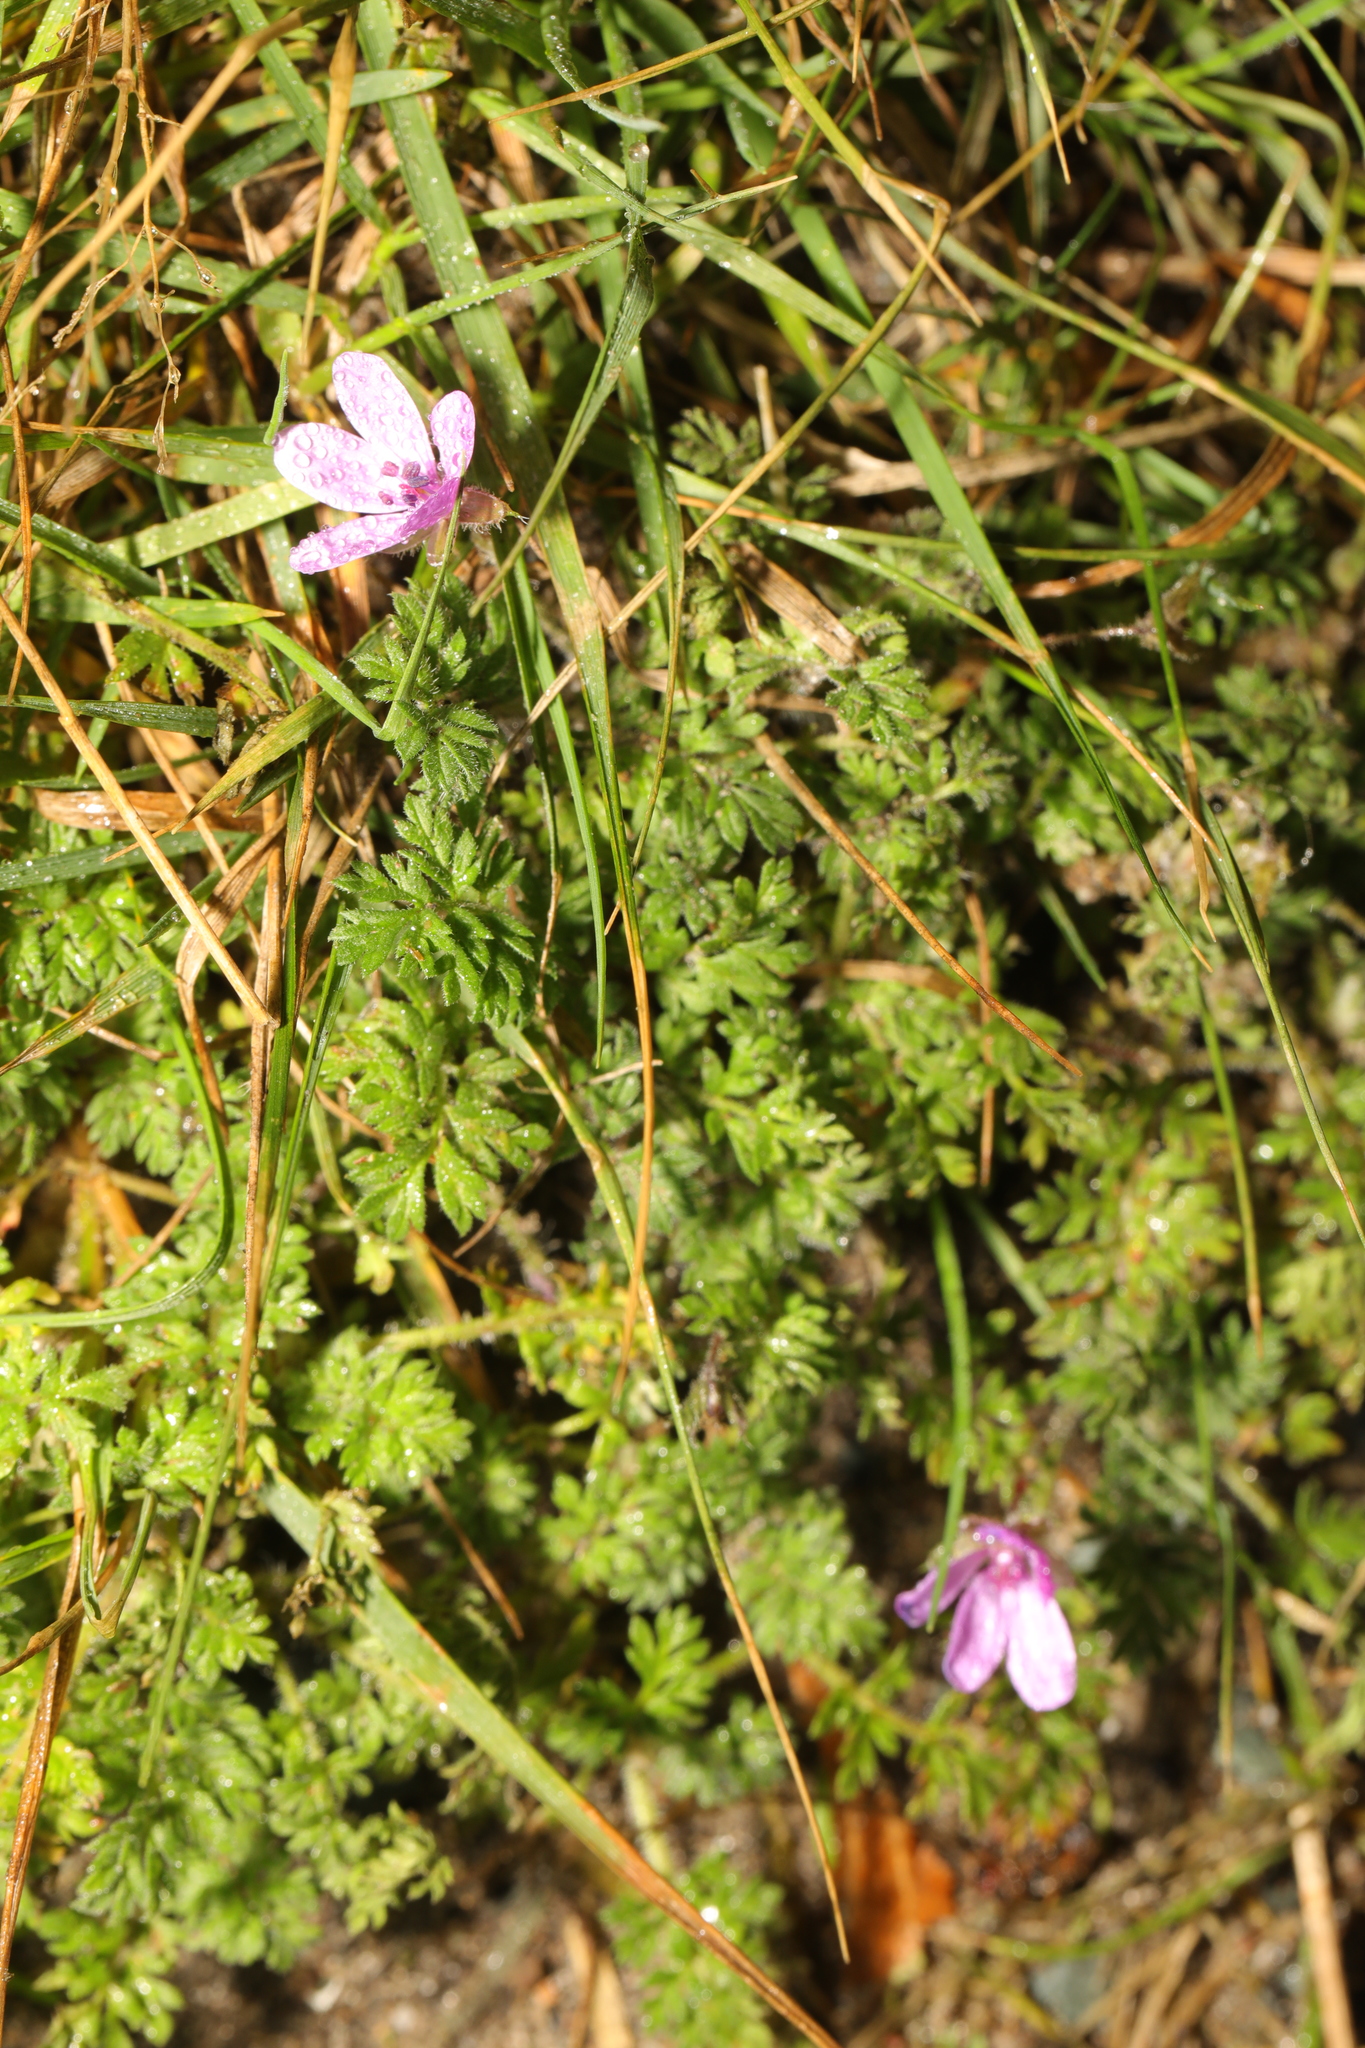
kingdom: Plantae
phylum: Tracheophyta
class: Magnoliopsida
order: Geraniales
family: Geraniaceae
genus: Erodium
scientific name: Erodium cicutarium
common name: Common stork's-bill
